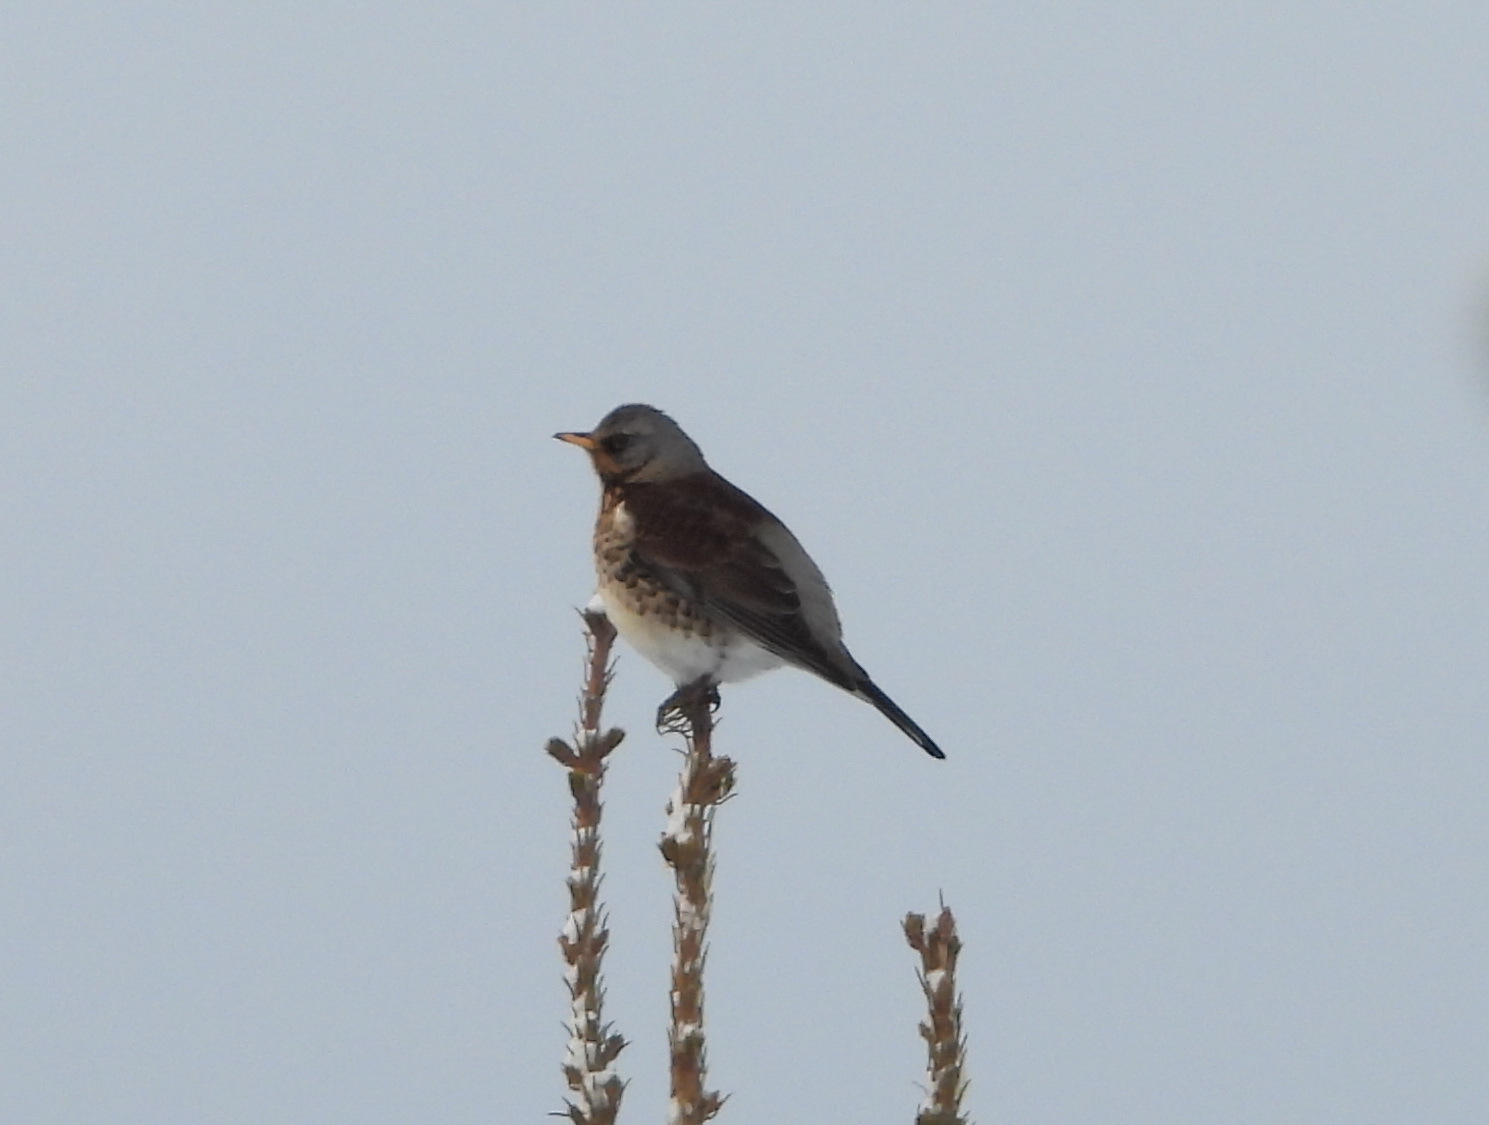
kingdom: Animalia
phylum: Chordata
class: Aves
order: Passeriformes
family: Turdidae
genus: Turdus
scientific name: Turdus pilaris
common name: Fieldfare
